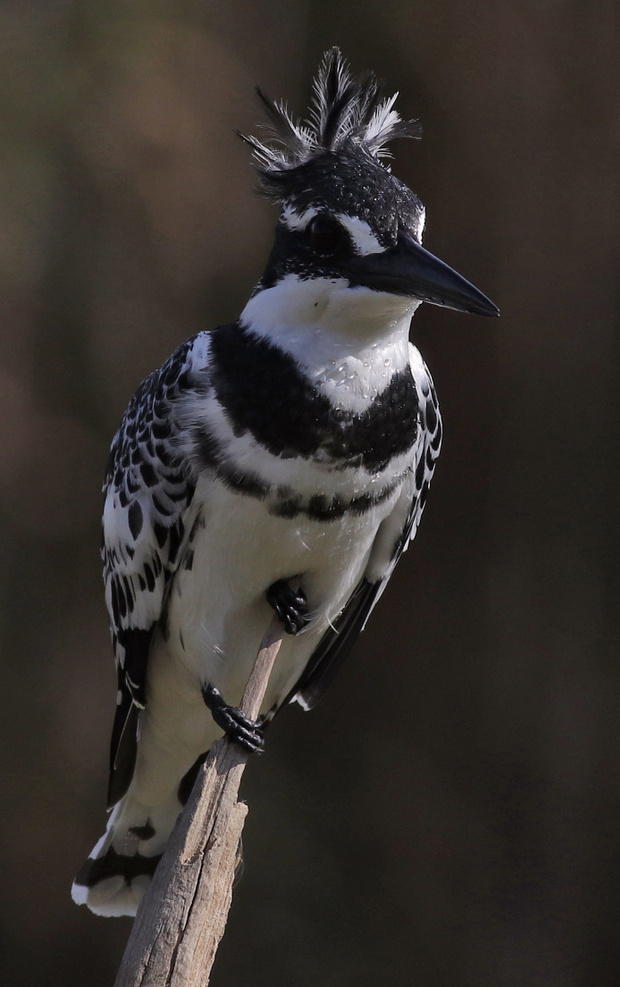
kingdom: Animalia
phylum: Chordata
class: Aves
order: Coraciiformes
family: Alcedinidae
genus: Ceryle
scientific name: Ceryle rudis
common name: Pied kingfisher
